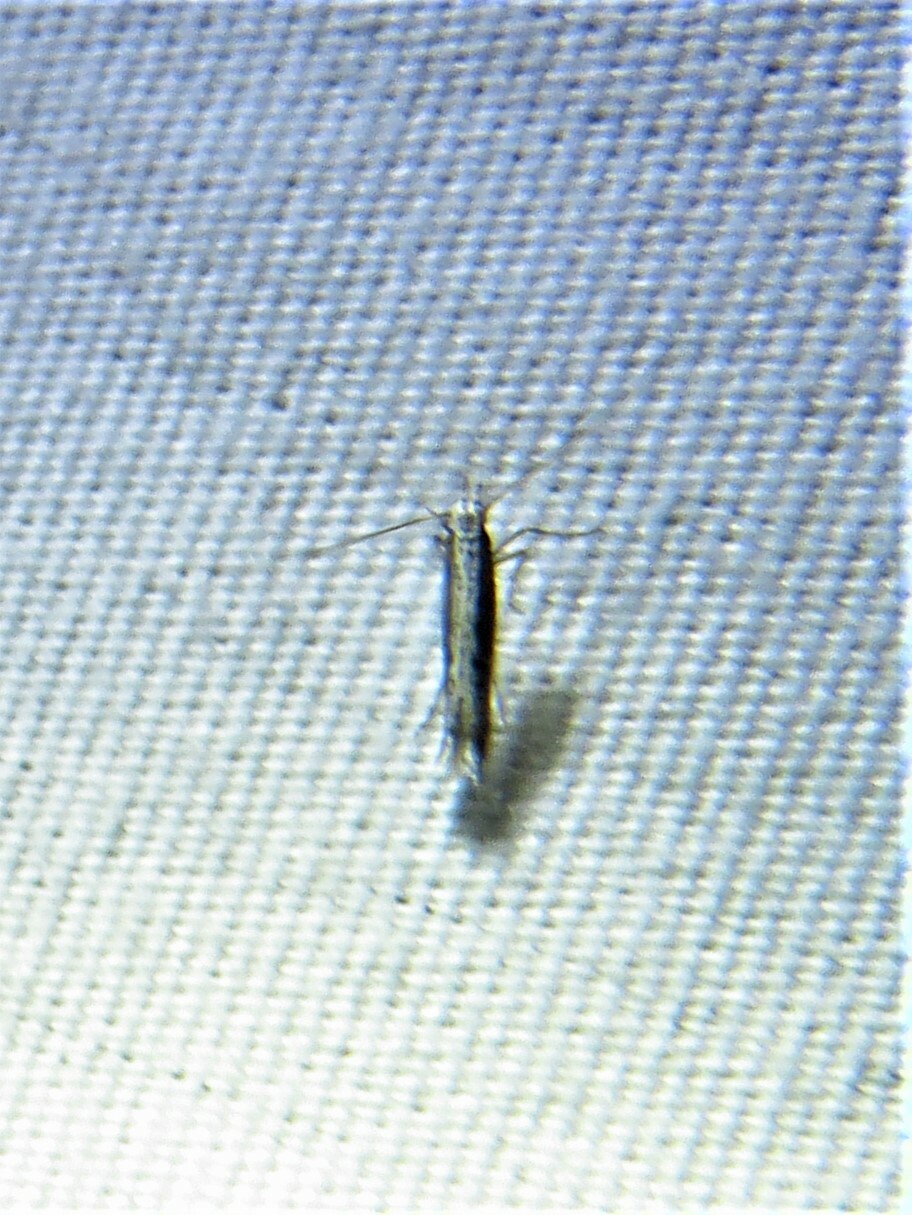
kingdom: Plantae
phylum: Rhodophyta
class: Florideophyceae
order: Gracilariales
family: Gracilariaceae
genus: Gracilaria
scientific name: Gracilaria
